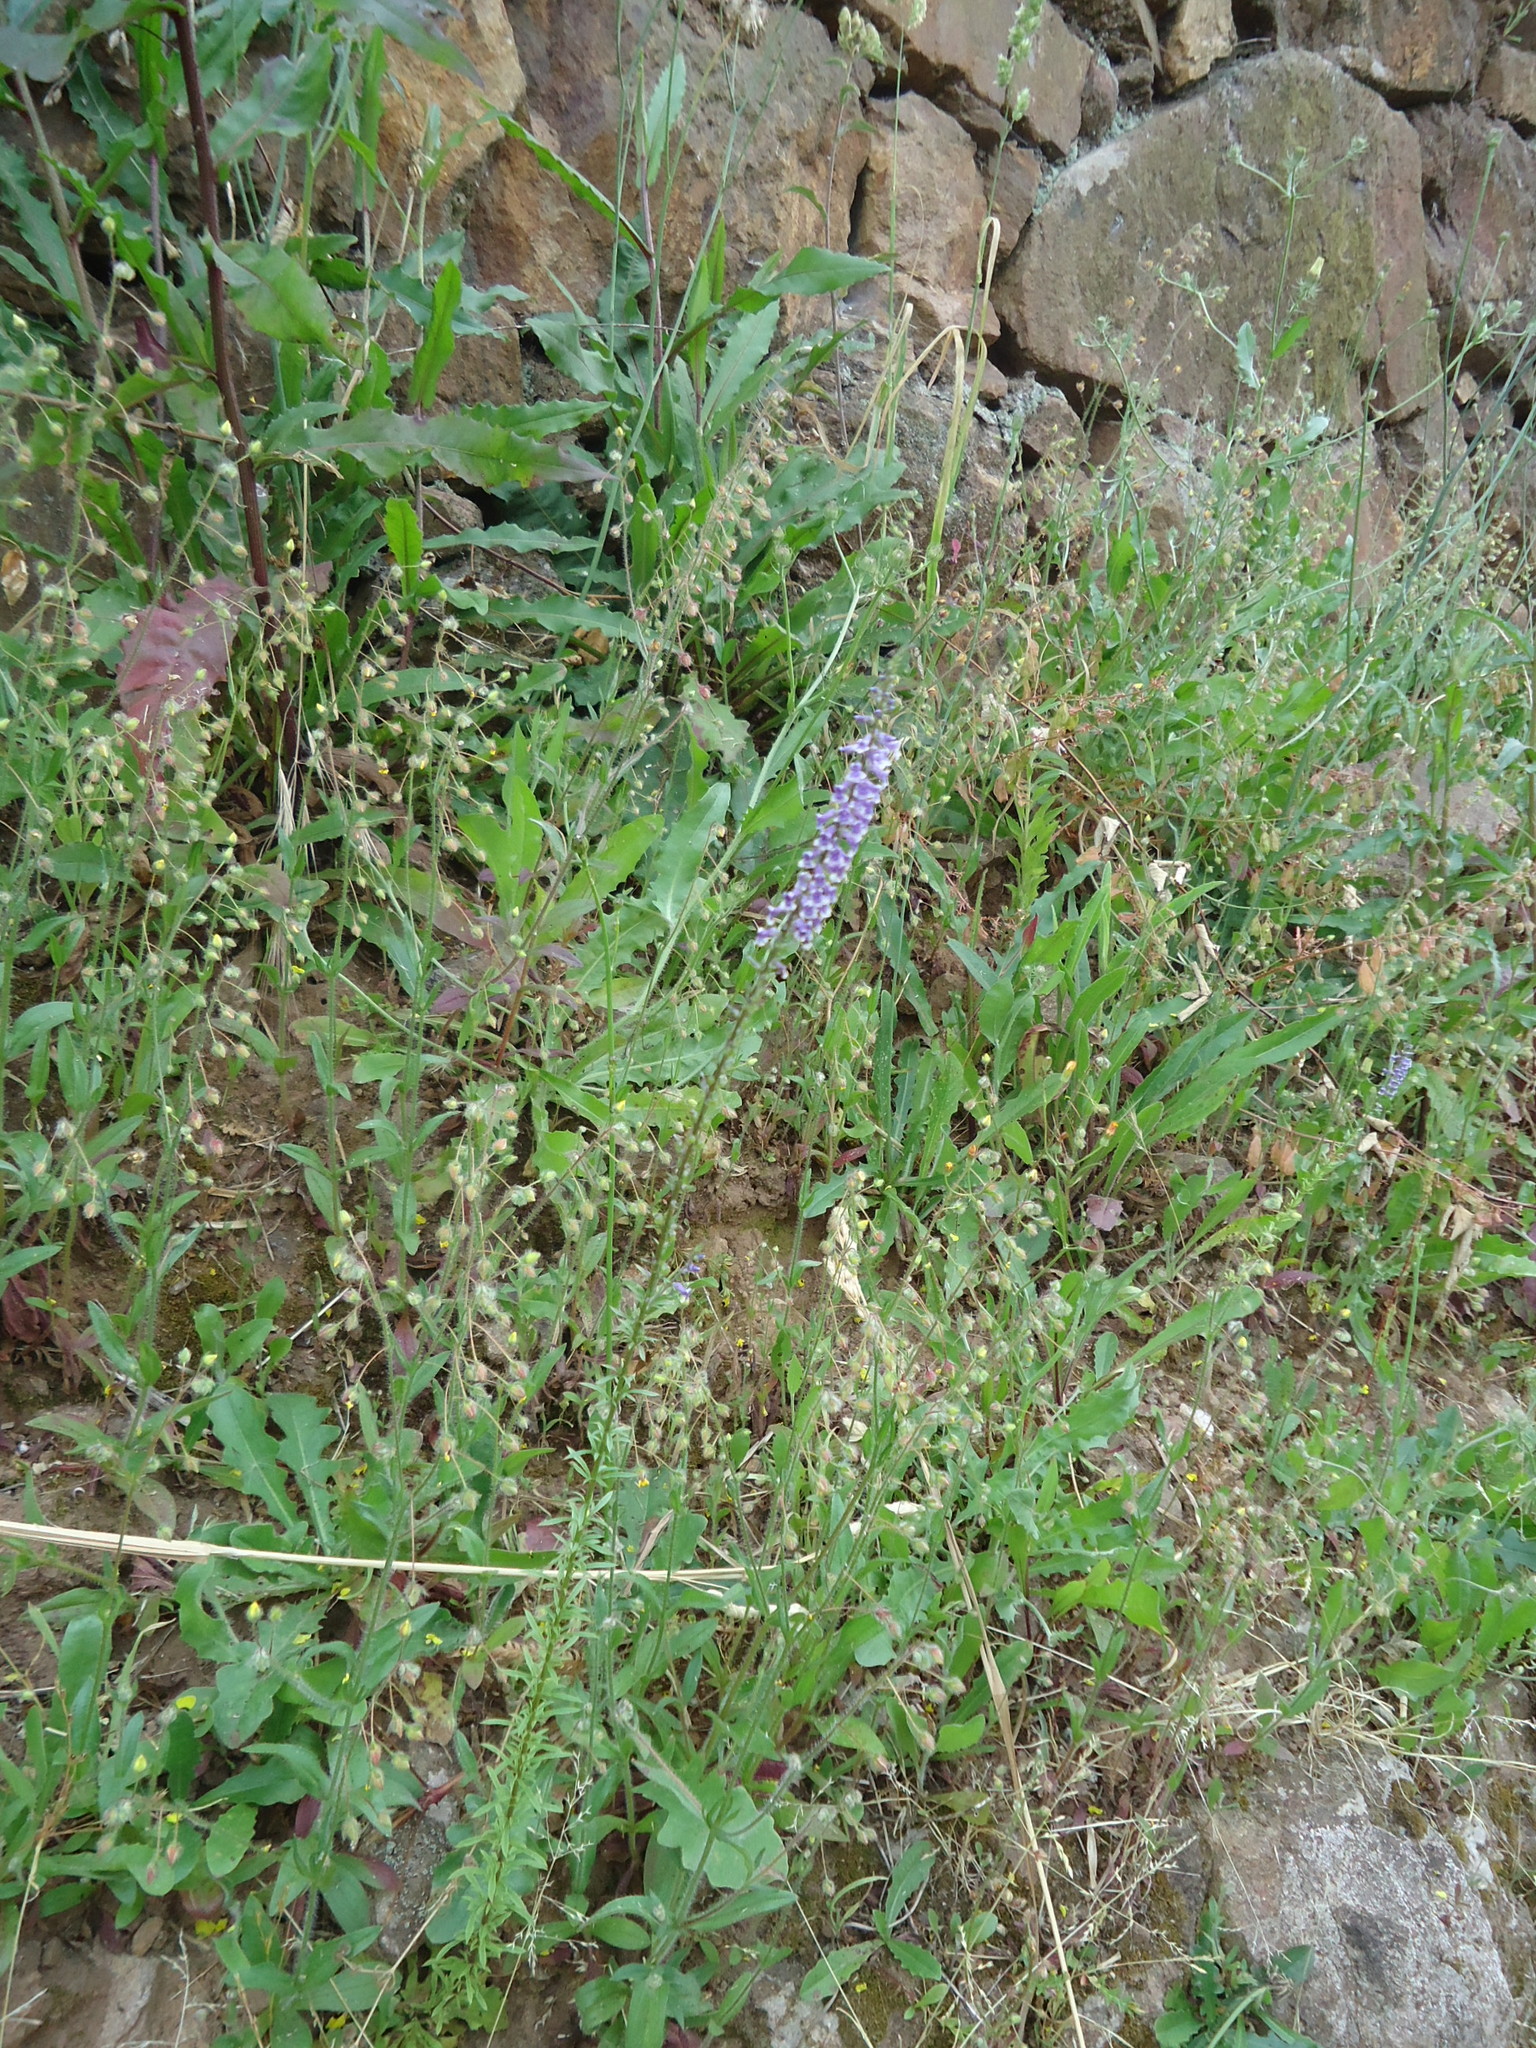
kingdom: Plantae
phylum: Tracheophyta
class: Magnoliopsida
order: Lamiales
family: Plantaginaceae
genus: Anarrhinum
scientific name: Anarrhinum bellidifolium
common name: Daisy-leaved toadflax
